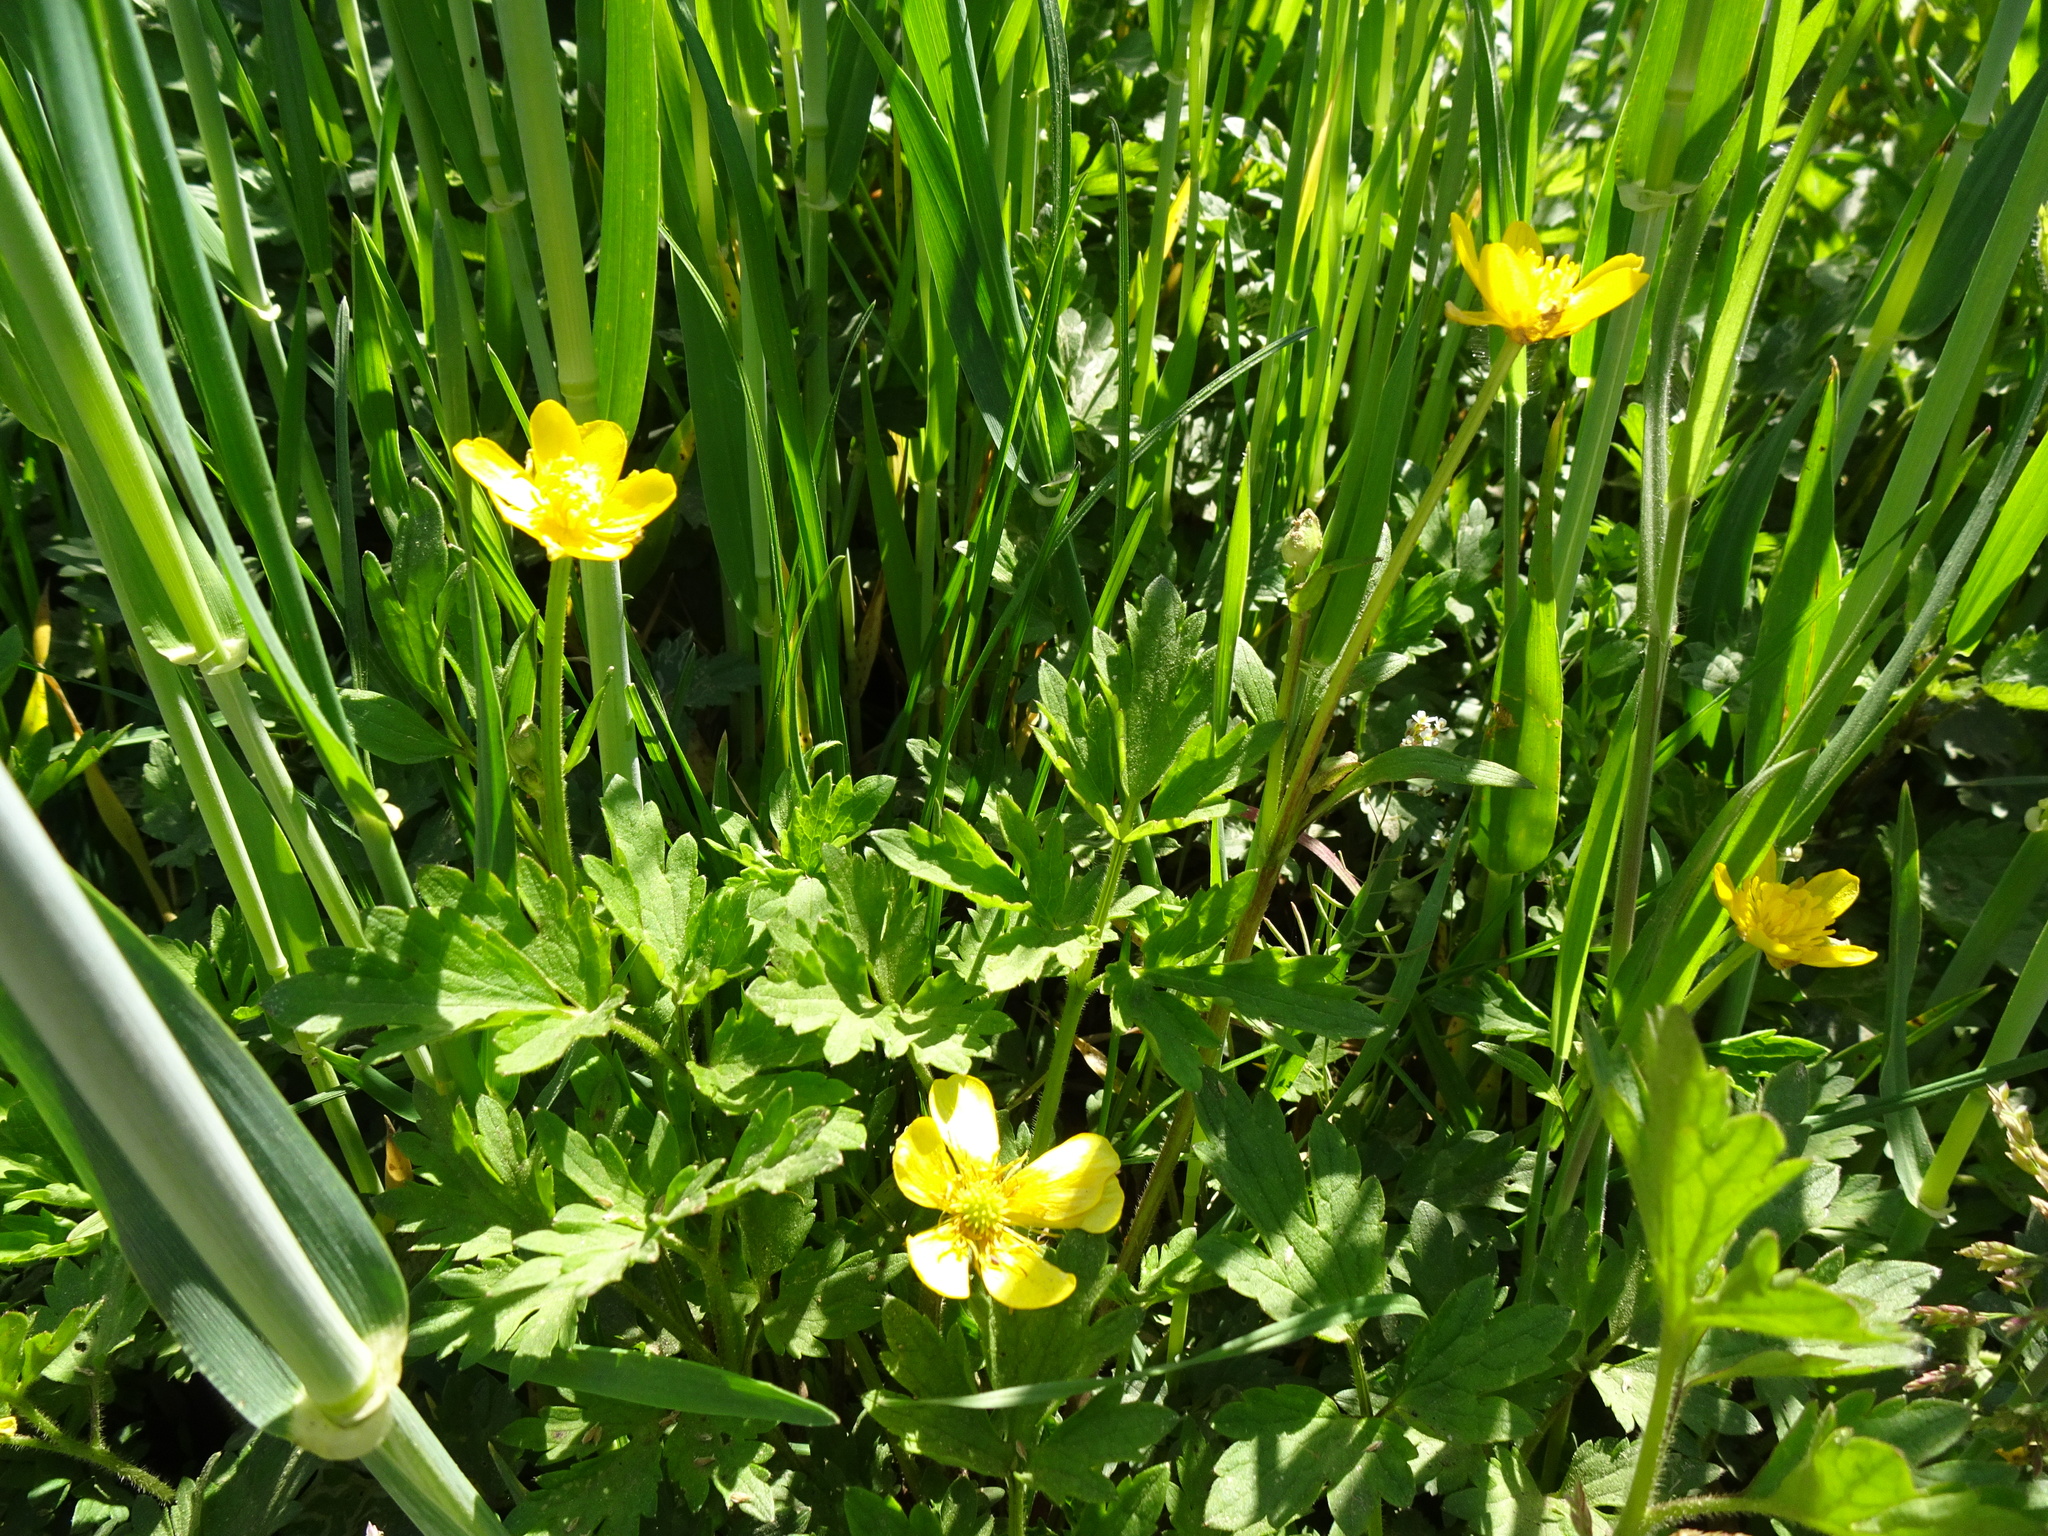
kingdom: Plantae
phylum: Tracheophyta
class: Magnoliopsida
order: Ranunculales
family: Ranunculaceae
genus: Ranunculus
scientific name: Ranunculus repens
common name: Creeping buttercup
